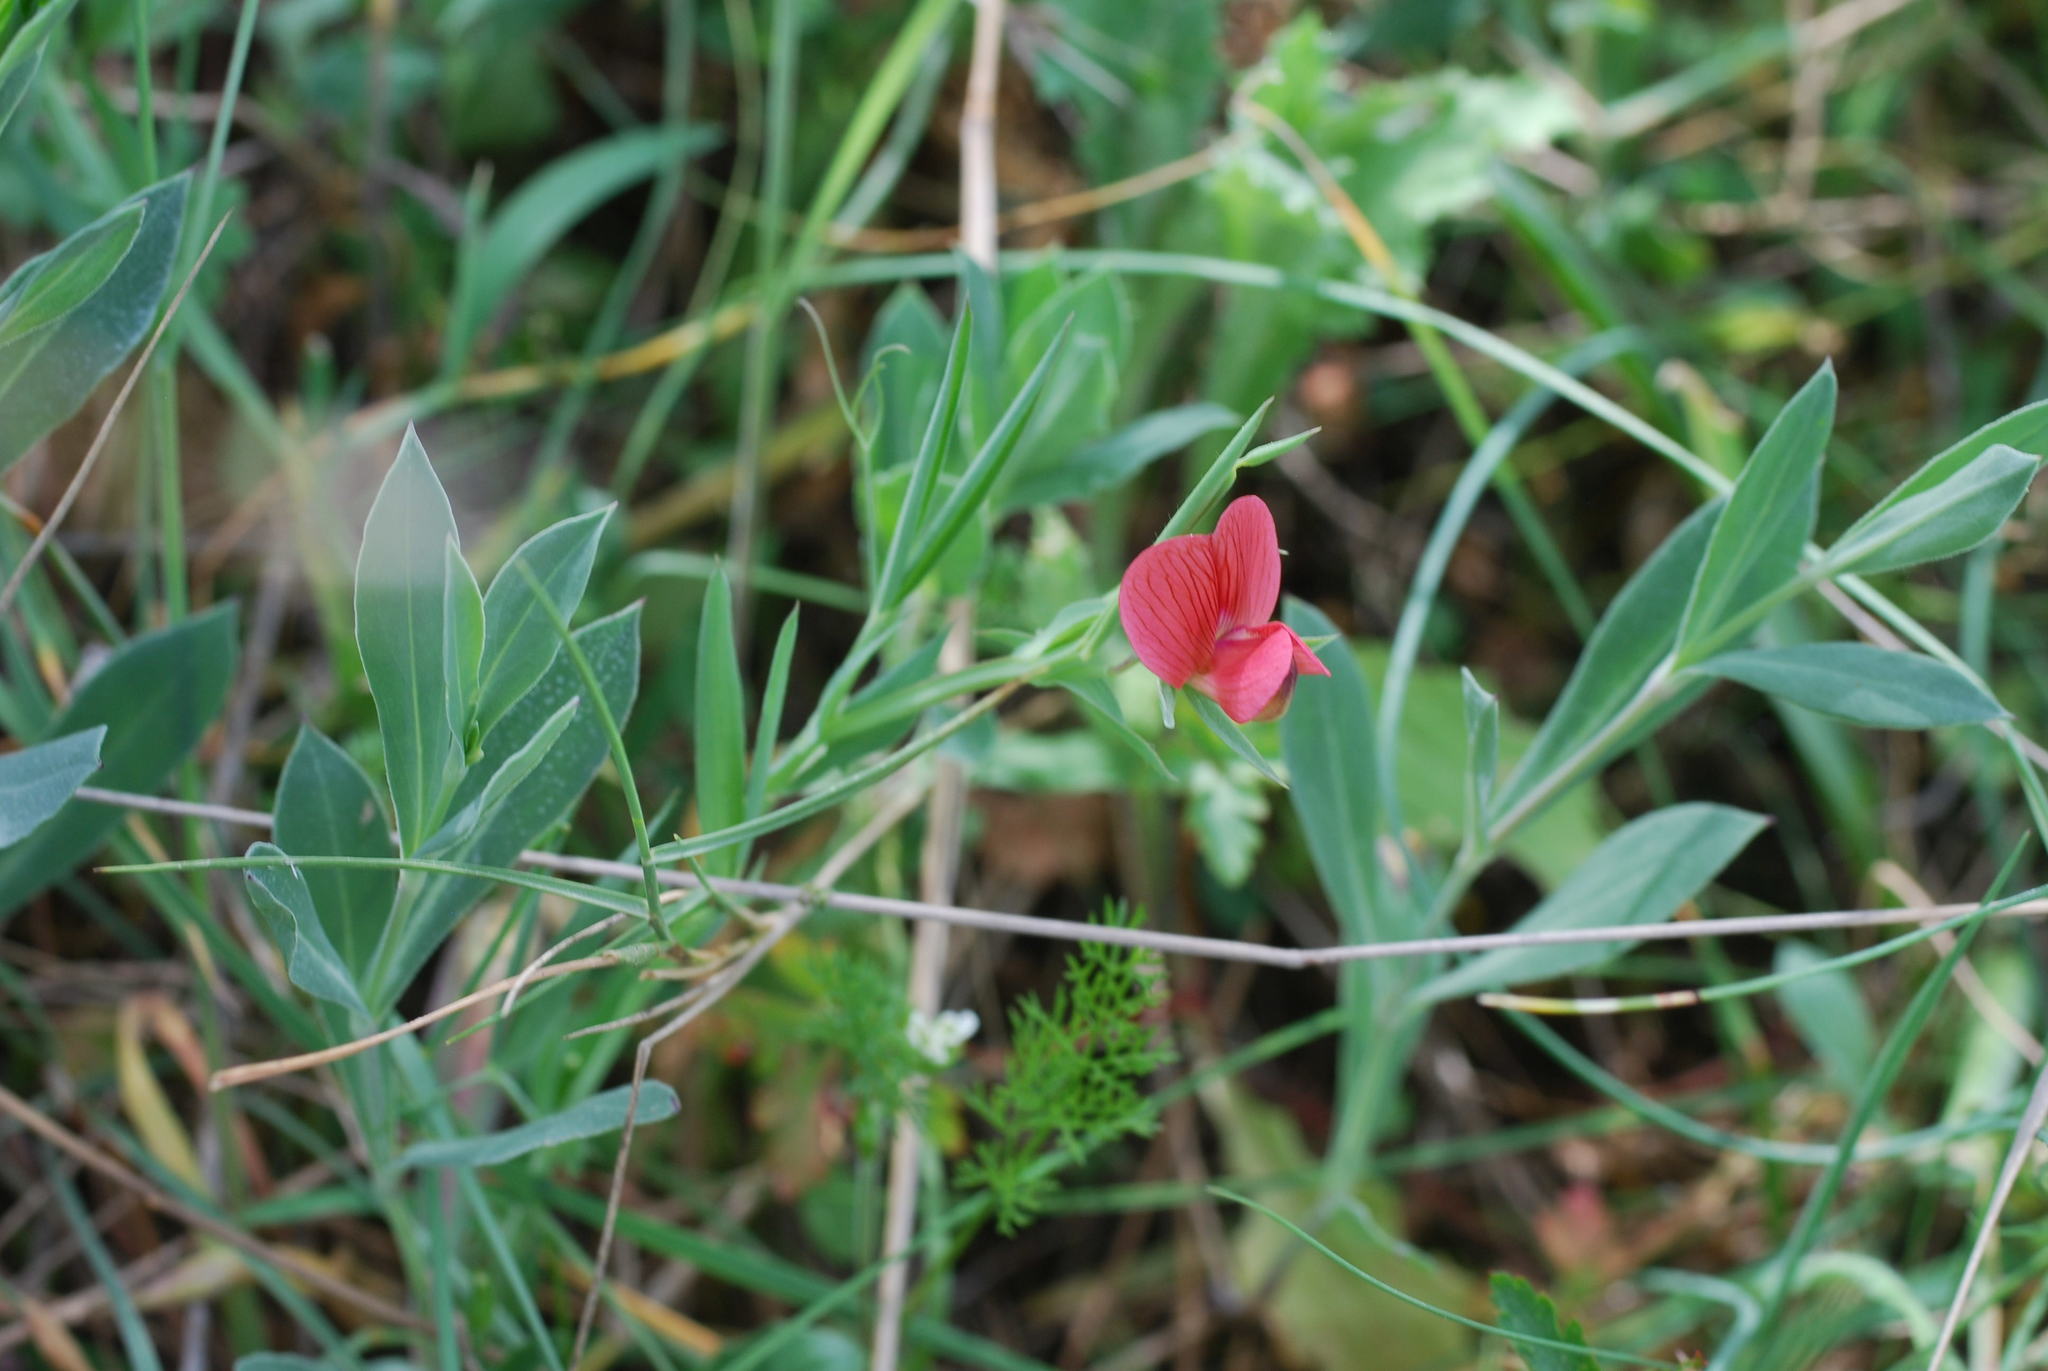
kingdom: Plantae
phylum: Tracheophyta
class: Magnoliopsida
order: Fabales
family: Fabaceae
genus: Lathyrus
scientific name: Lathyrus cicera
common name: Red vetchling
